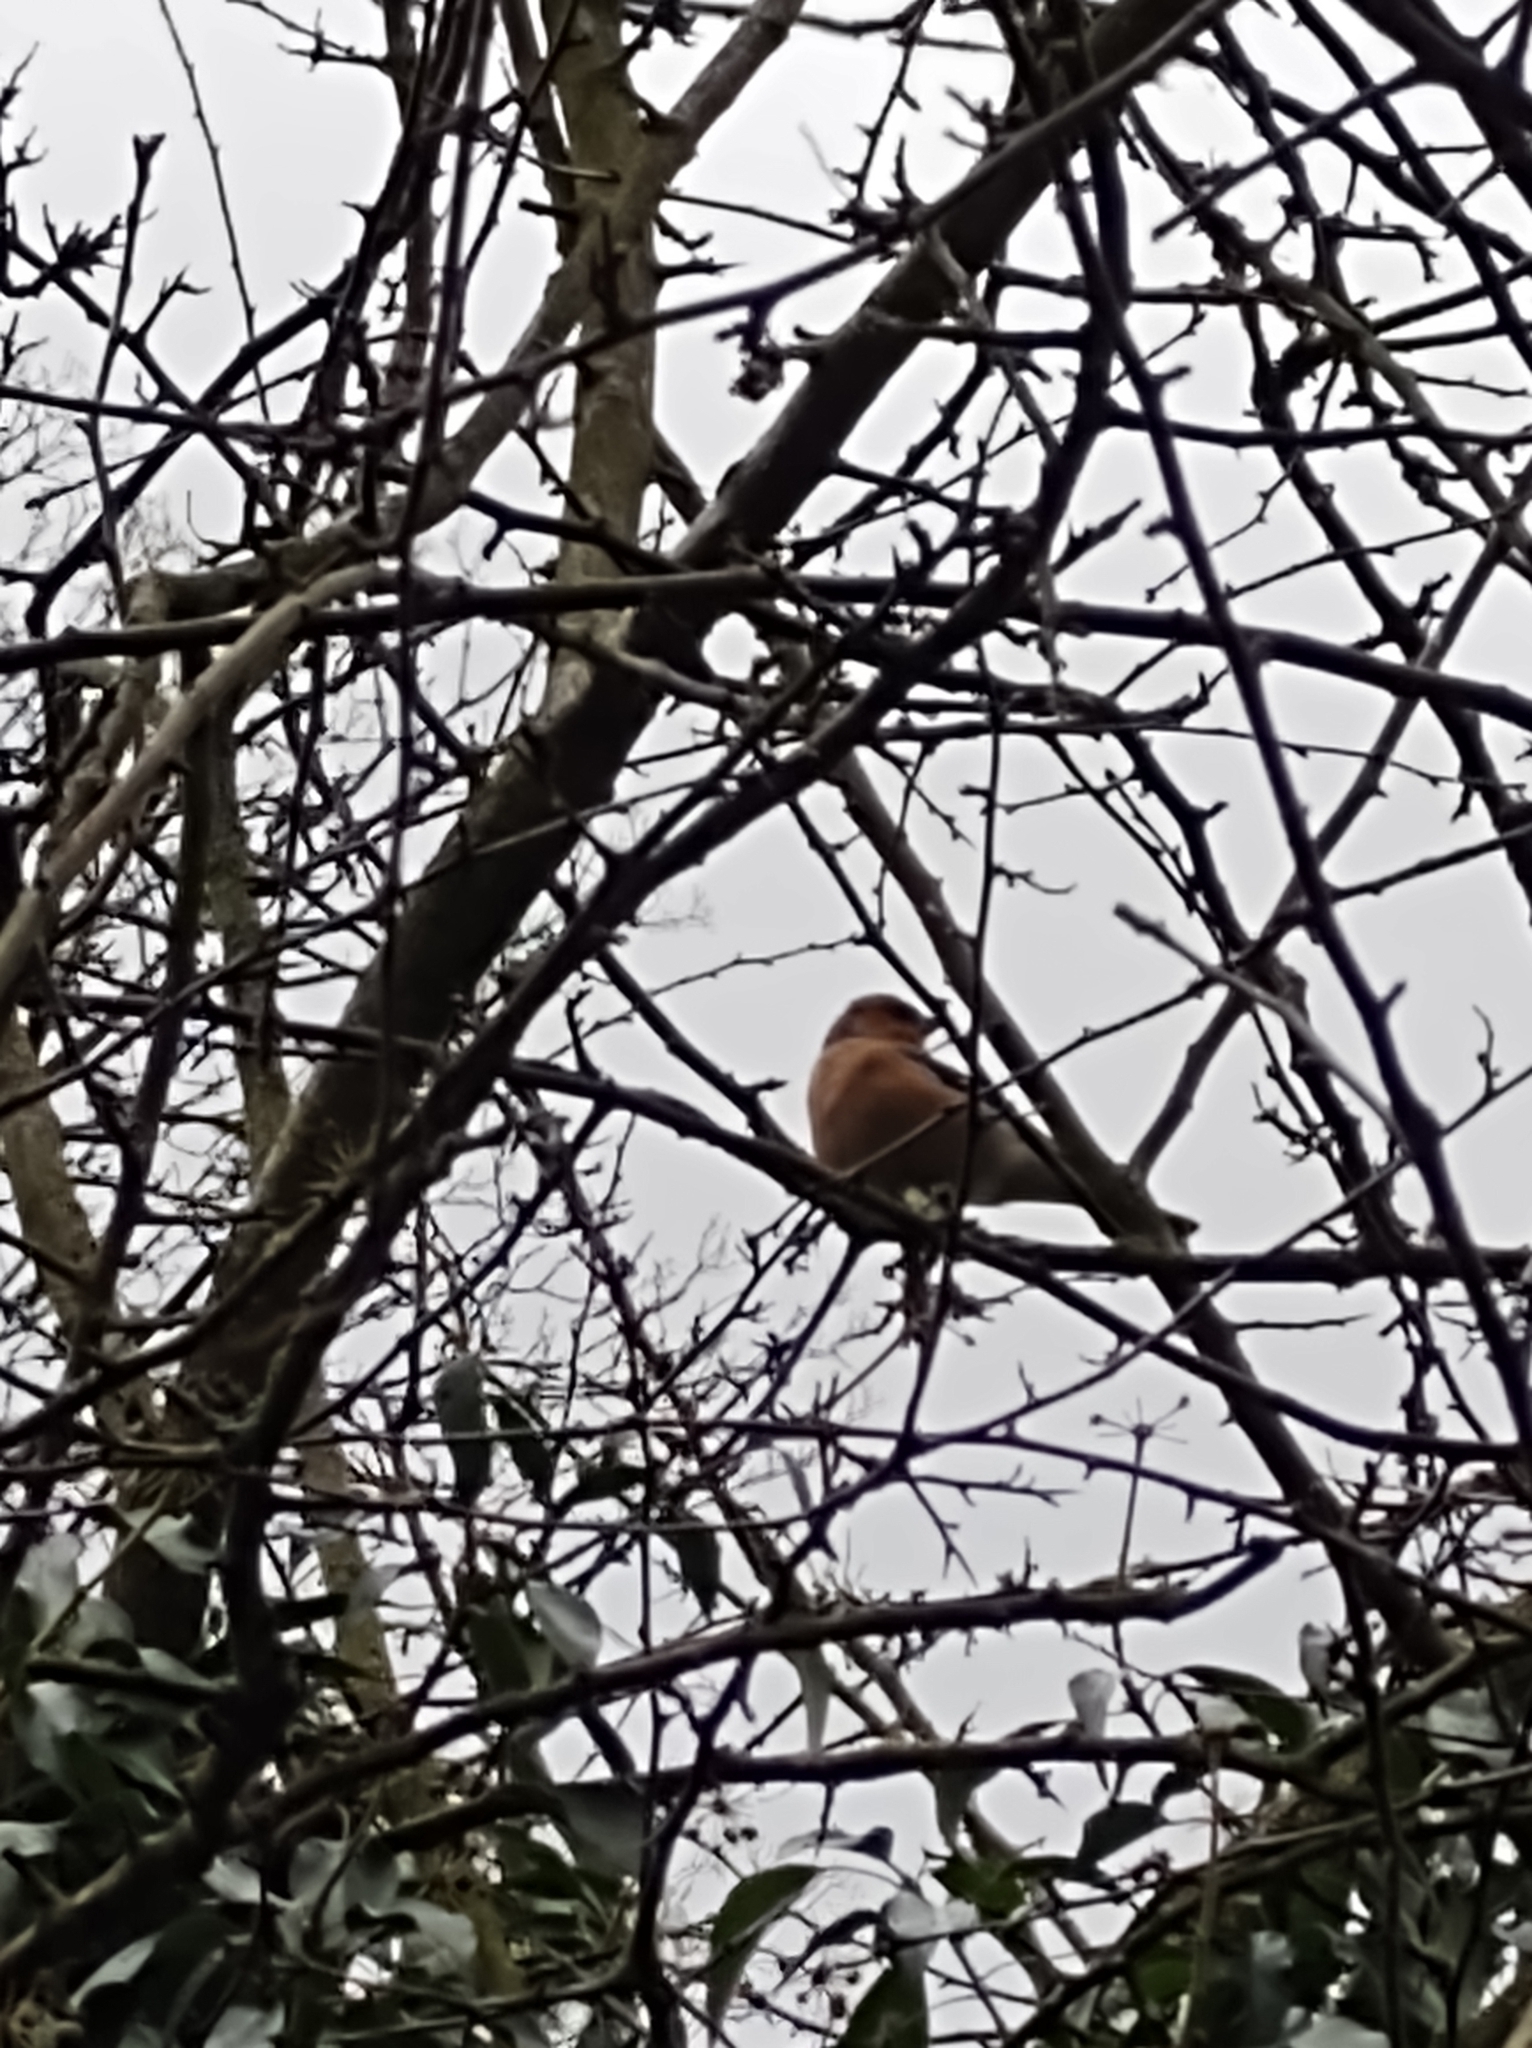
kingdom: Animalia
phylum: Chordata
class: Aves
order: Passeriformes
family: Fringillidae
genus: Fringilla
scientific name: Fringilla coelebs
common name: Common chaffinch
